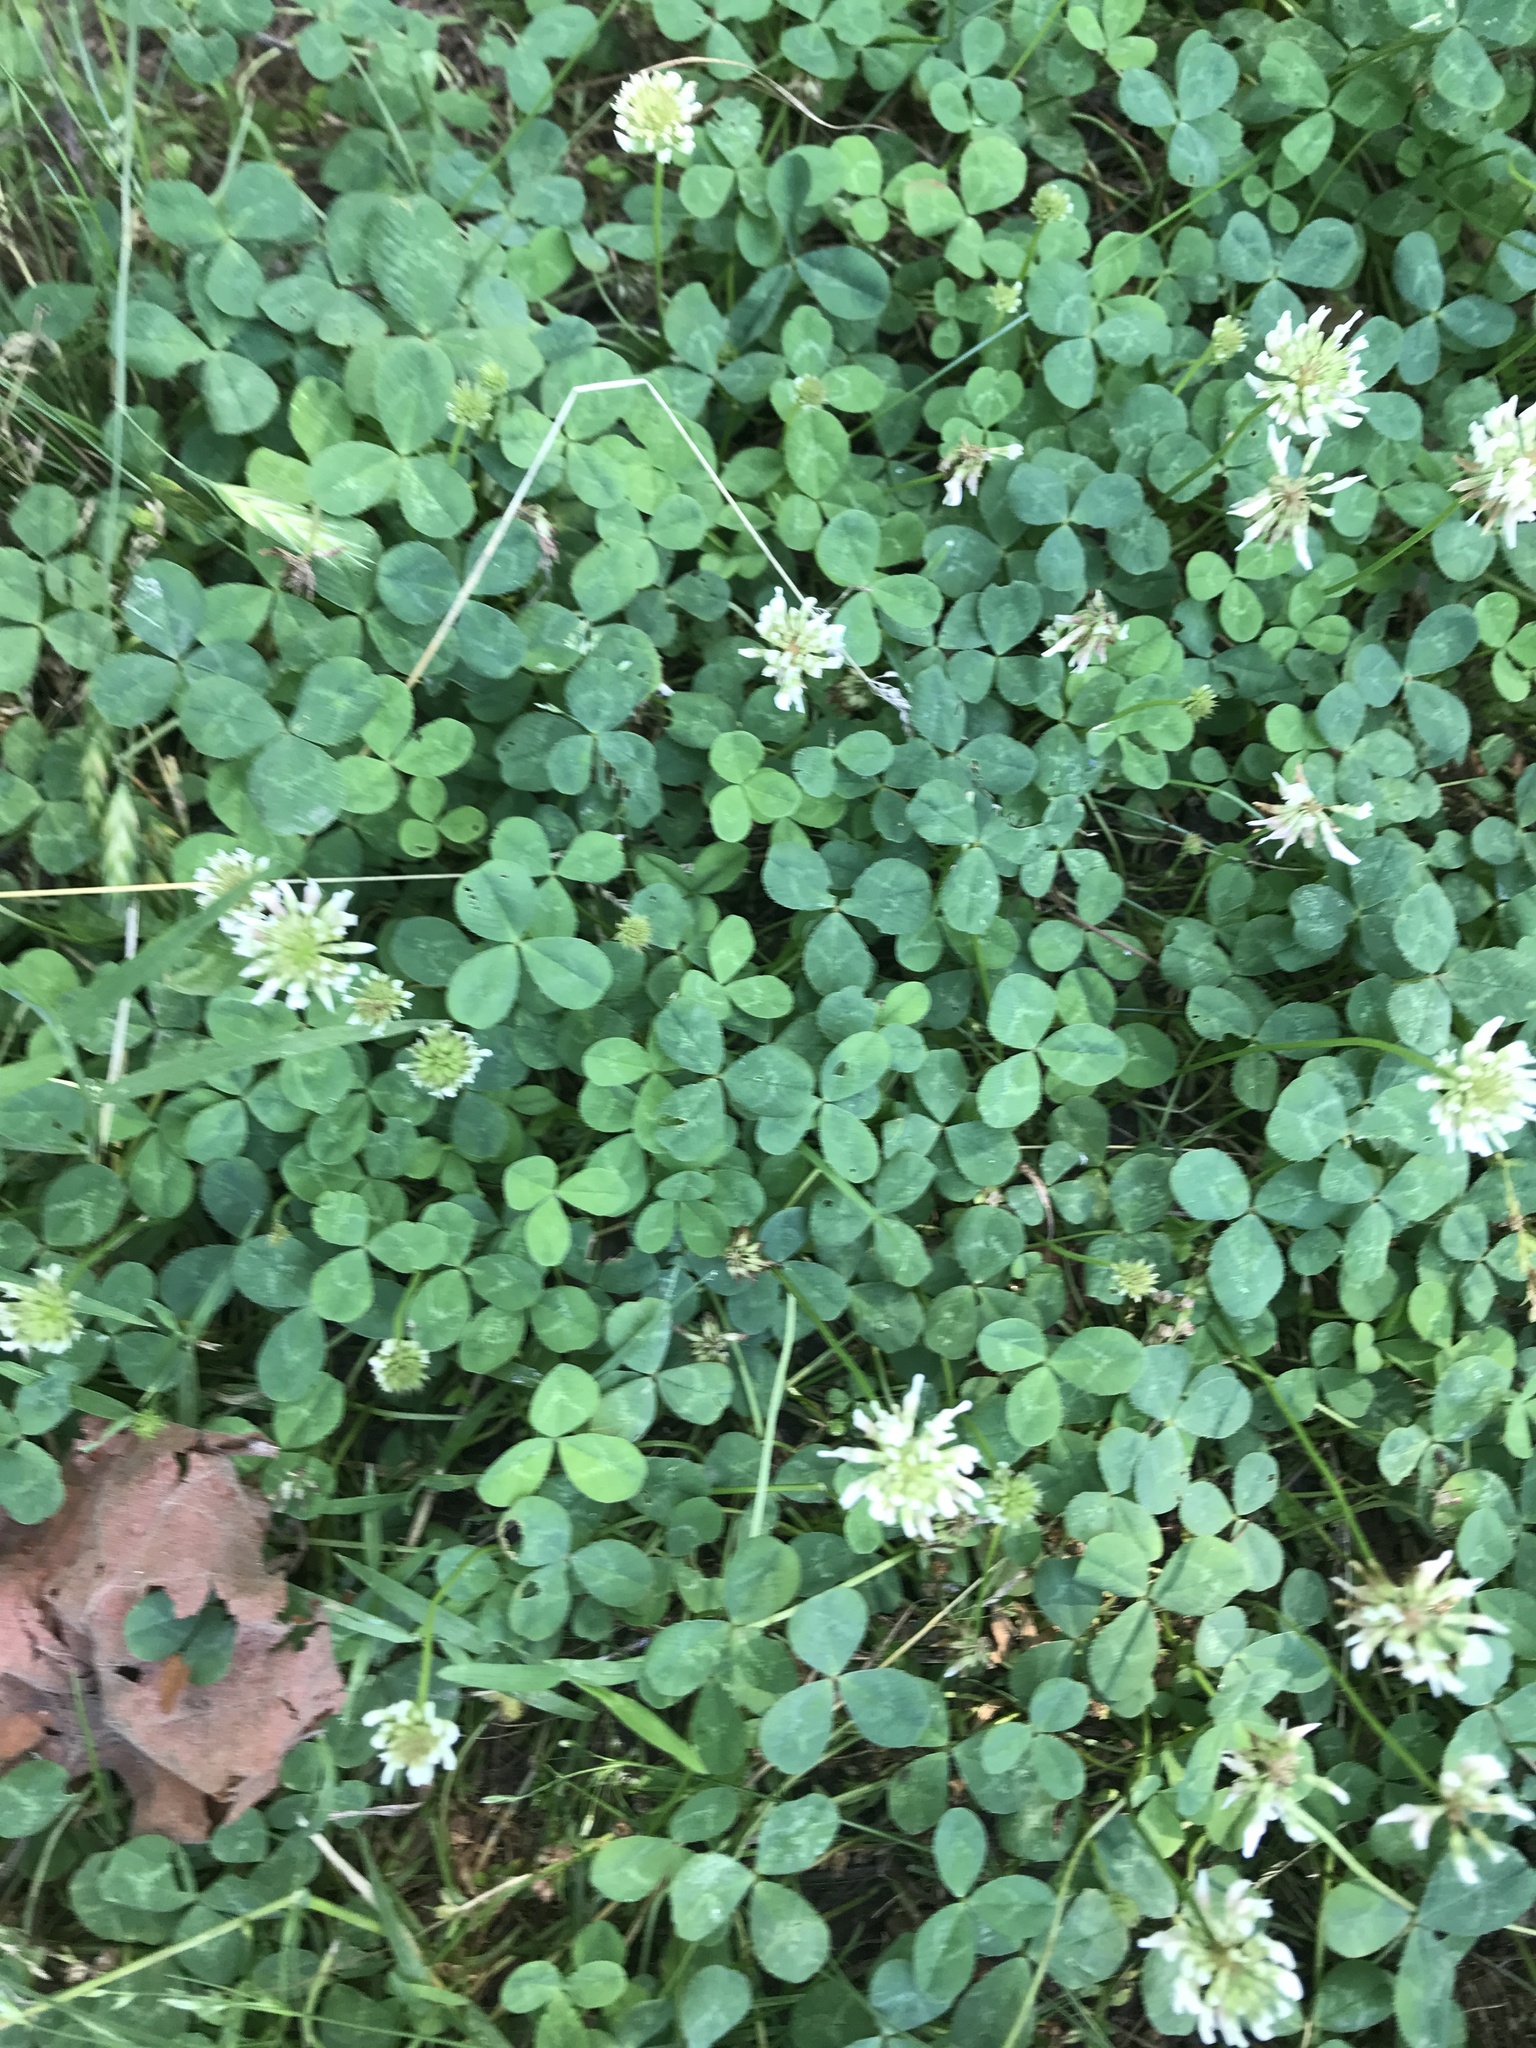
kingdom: Plantae
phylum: Tracheophyta
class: Magnoliopsida
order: Fabales
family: Fabaceae
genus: Trifolium
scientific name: Trifolium repens
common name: White clover
